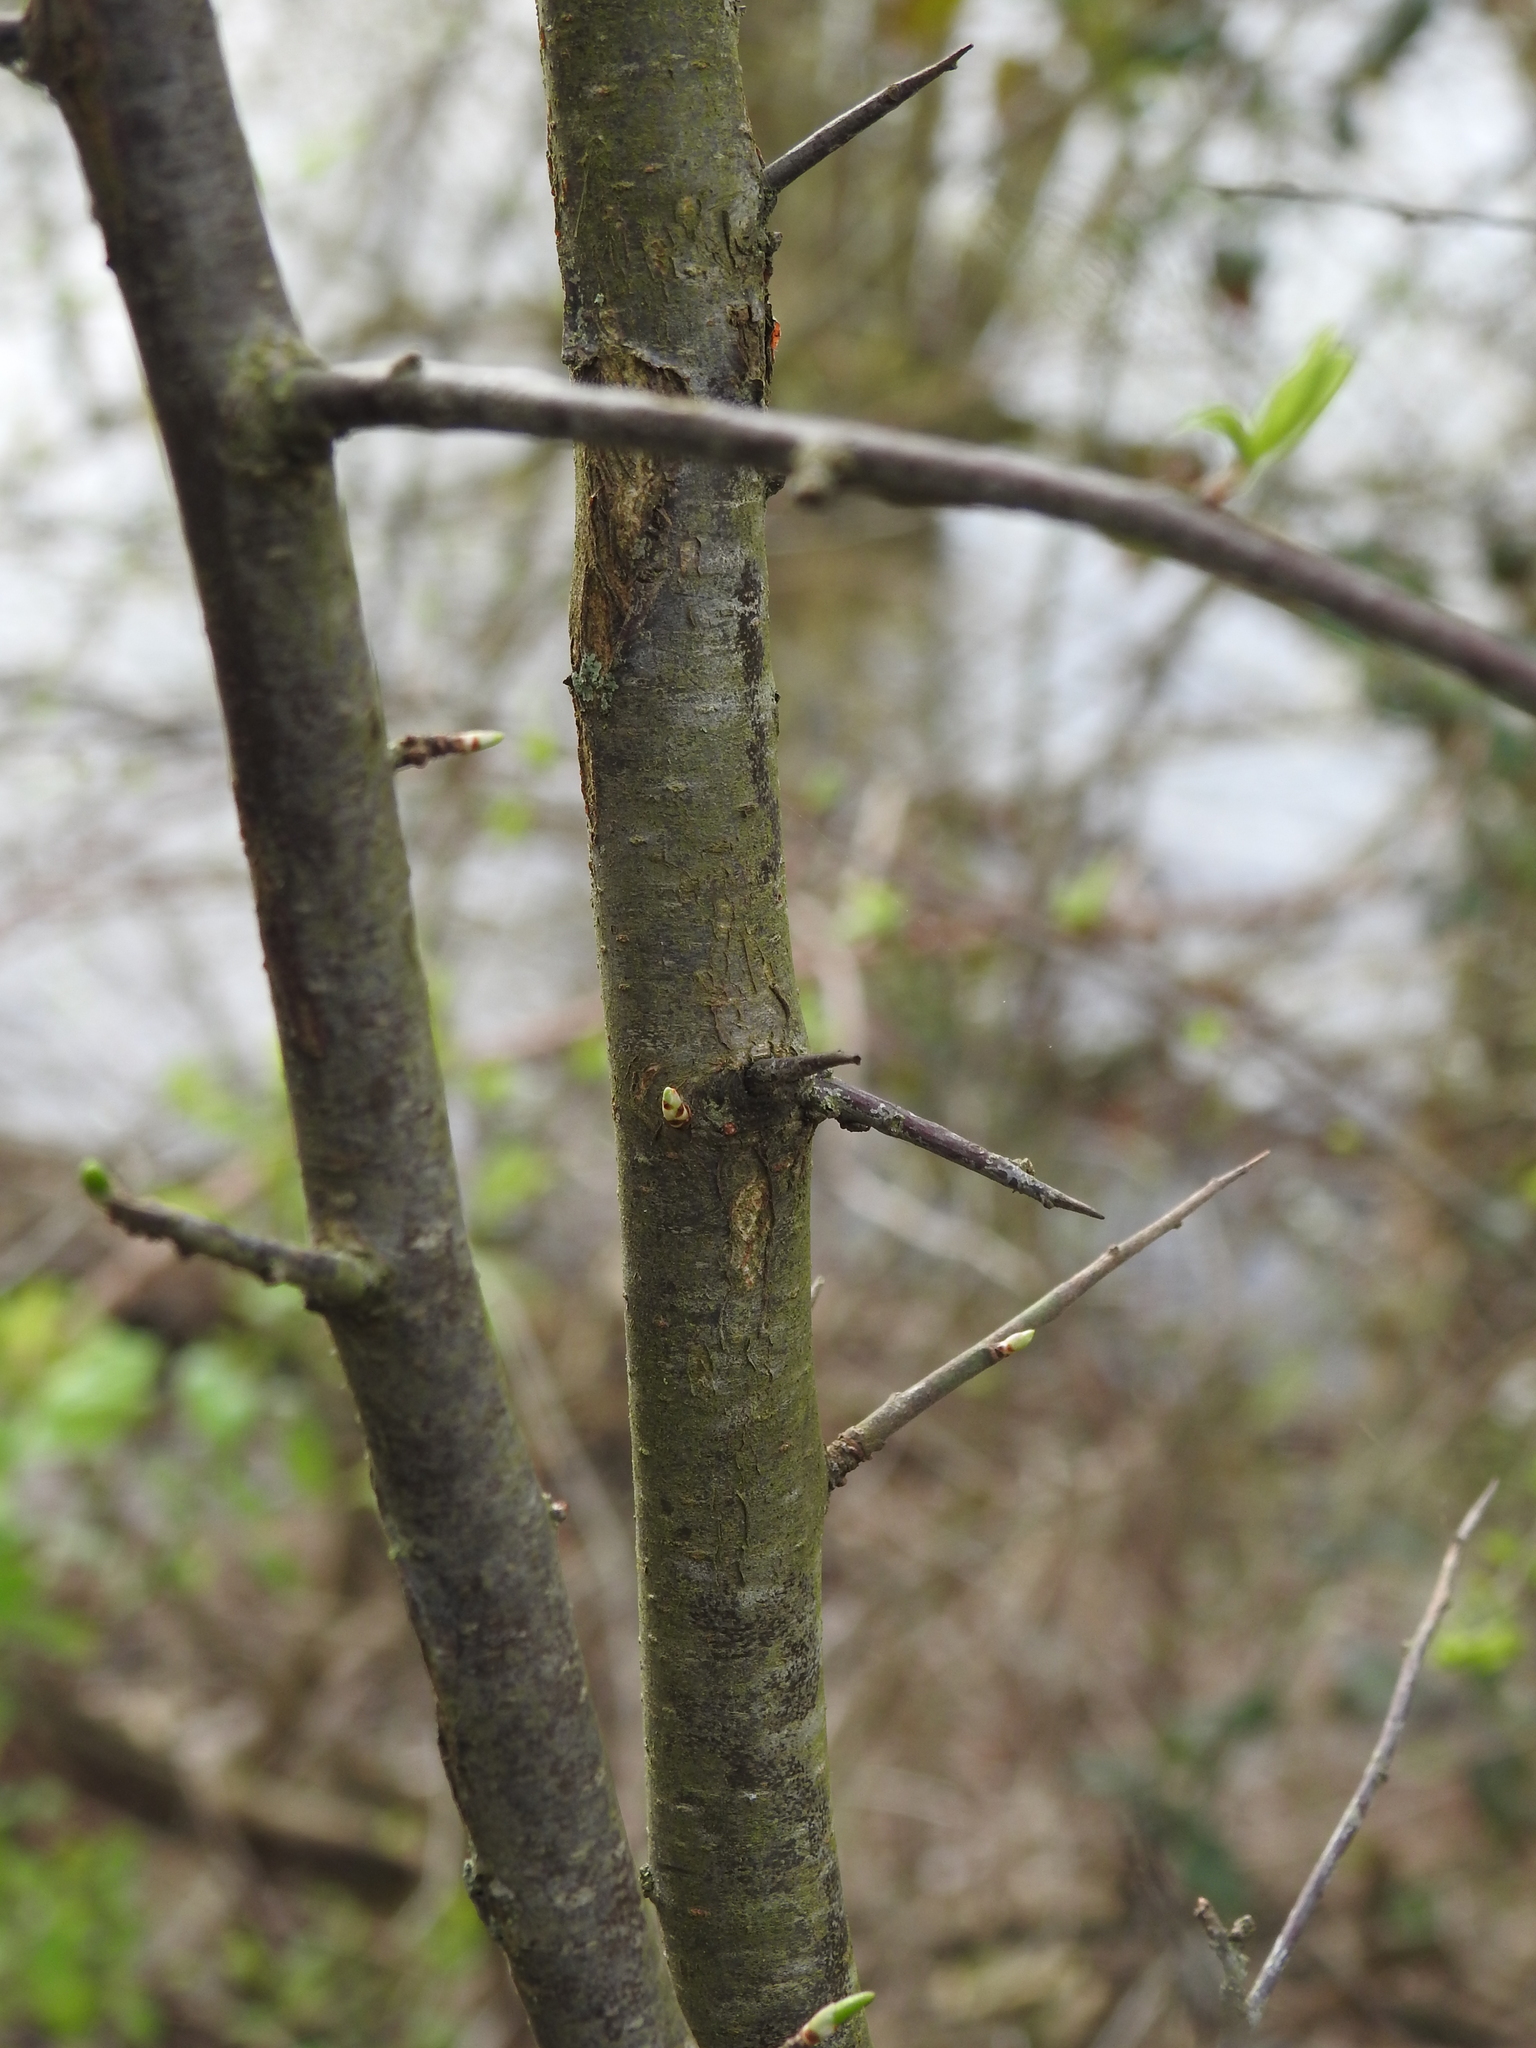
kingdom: Plantae
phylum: Tracheophyta
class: Magnoliopsida
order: Rosales
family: Rosaceae
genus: Prunus
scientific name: Prunus spinosa
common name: Blackthorn
